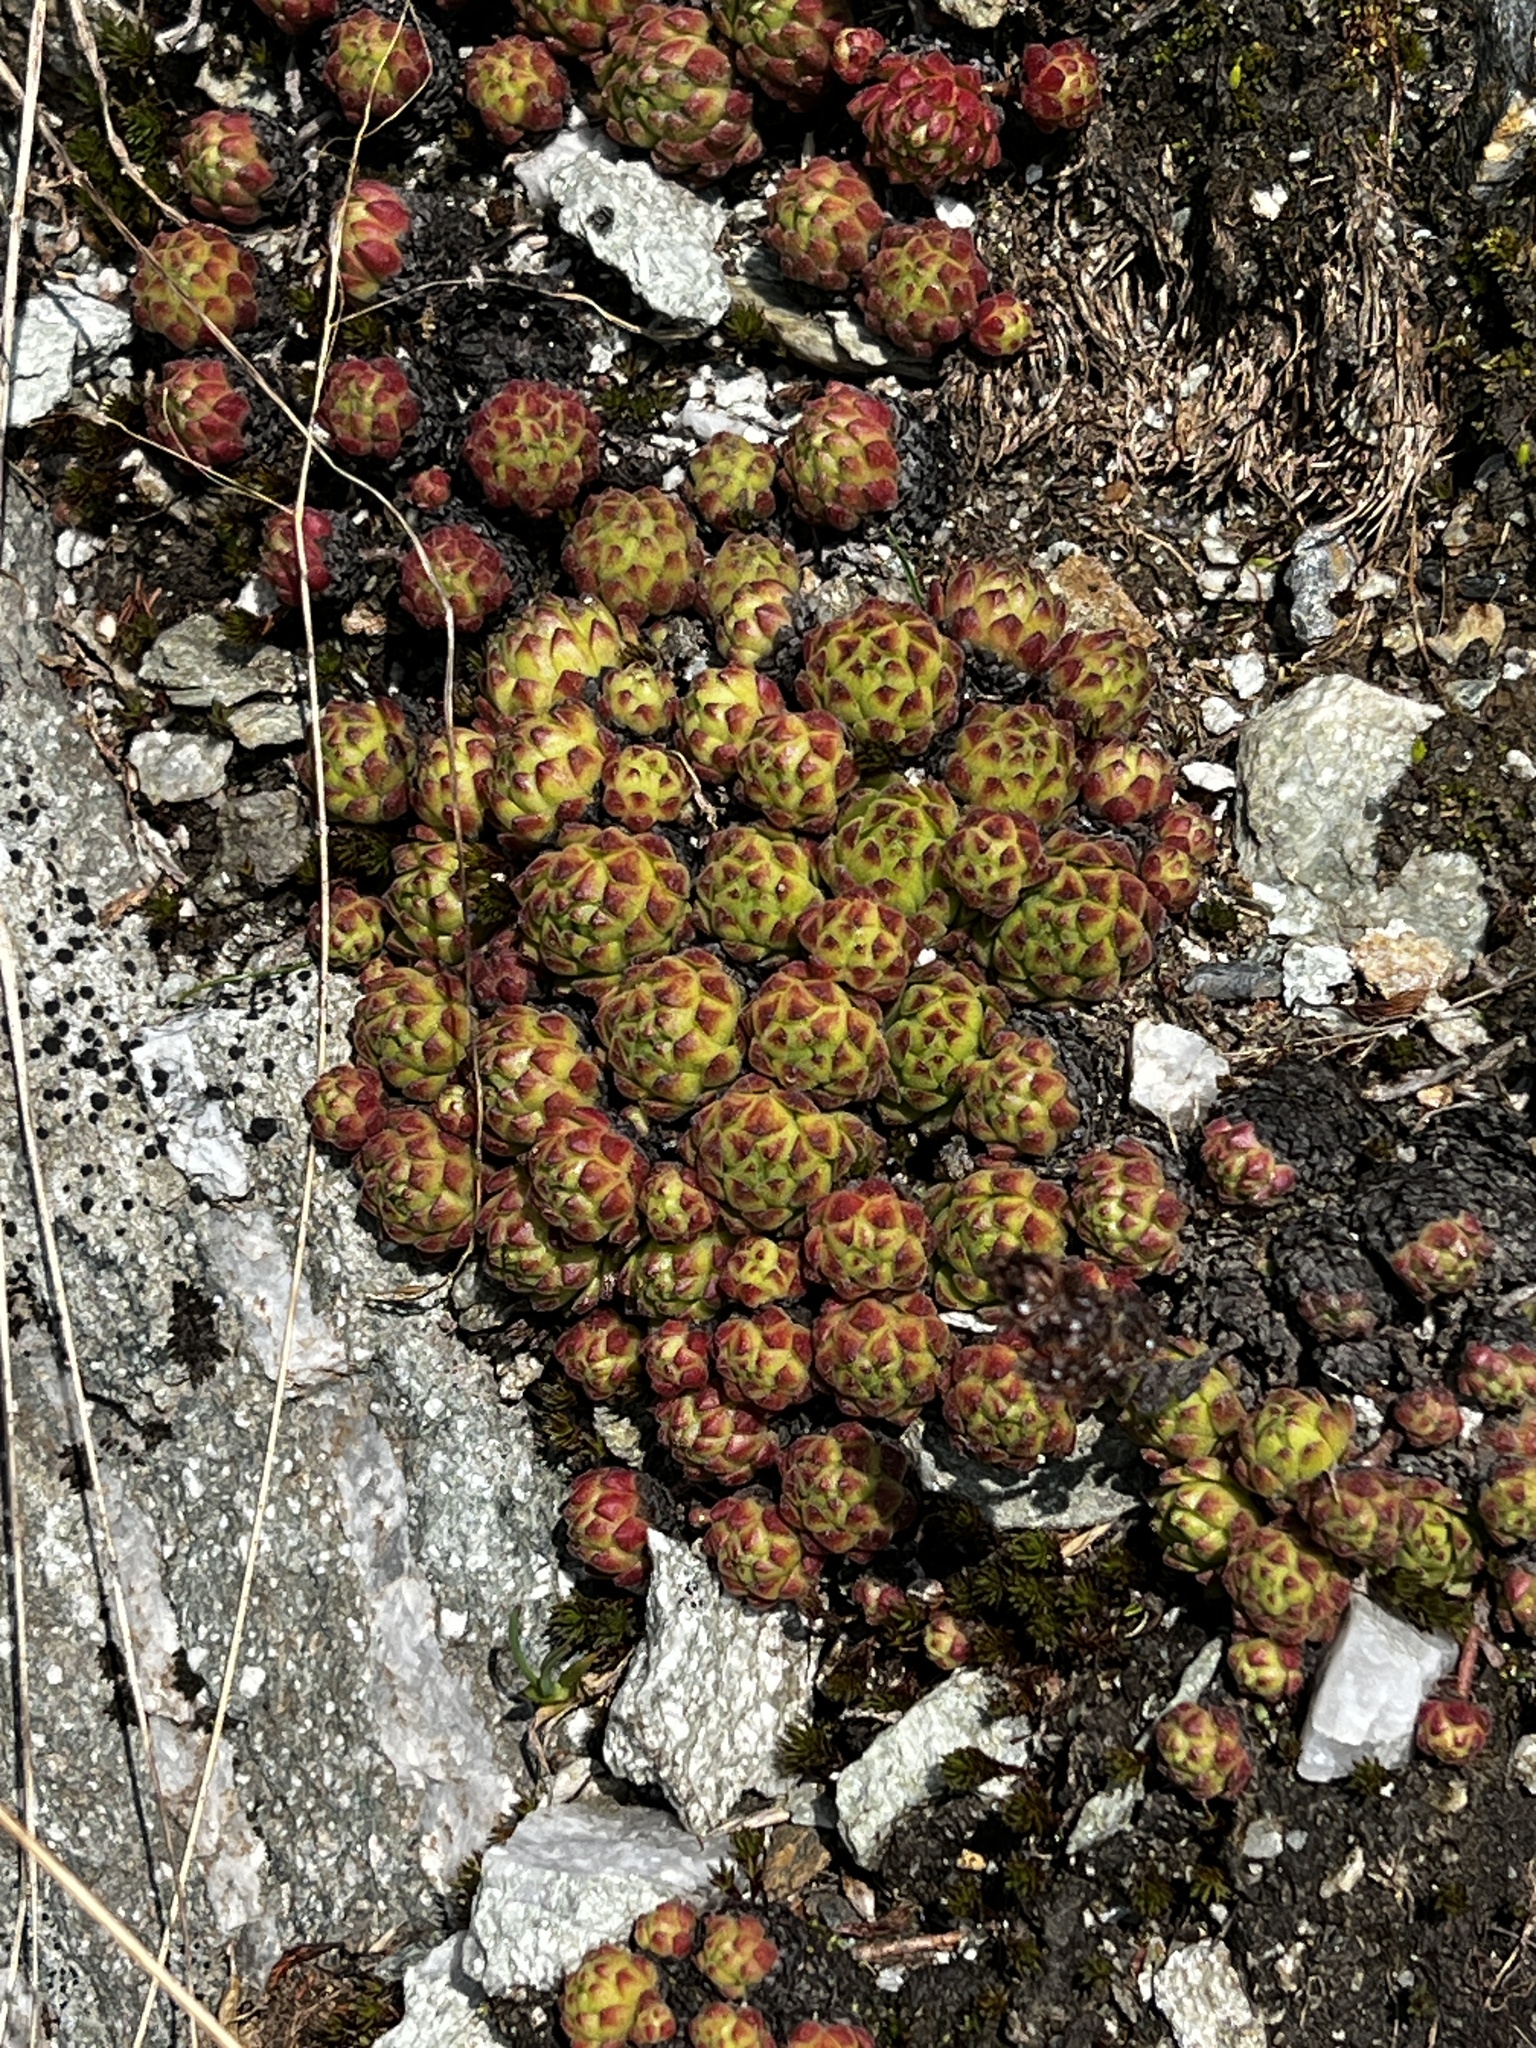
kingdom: Plantae
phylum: Tracheophyta
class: Magnoliopsida
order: Saxifragales
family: Crassulaceae
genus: Sempervivum
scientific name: Sempervivum montanum
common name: Mountain house-leek
